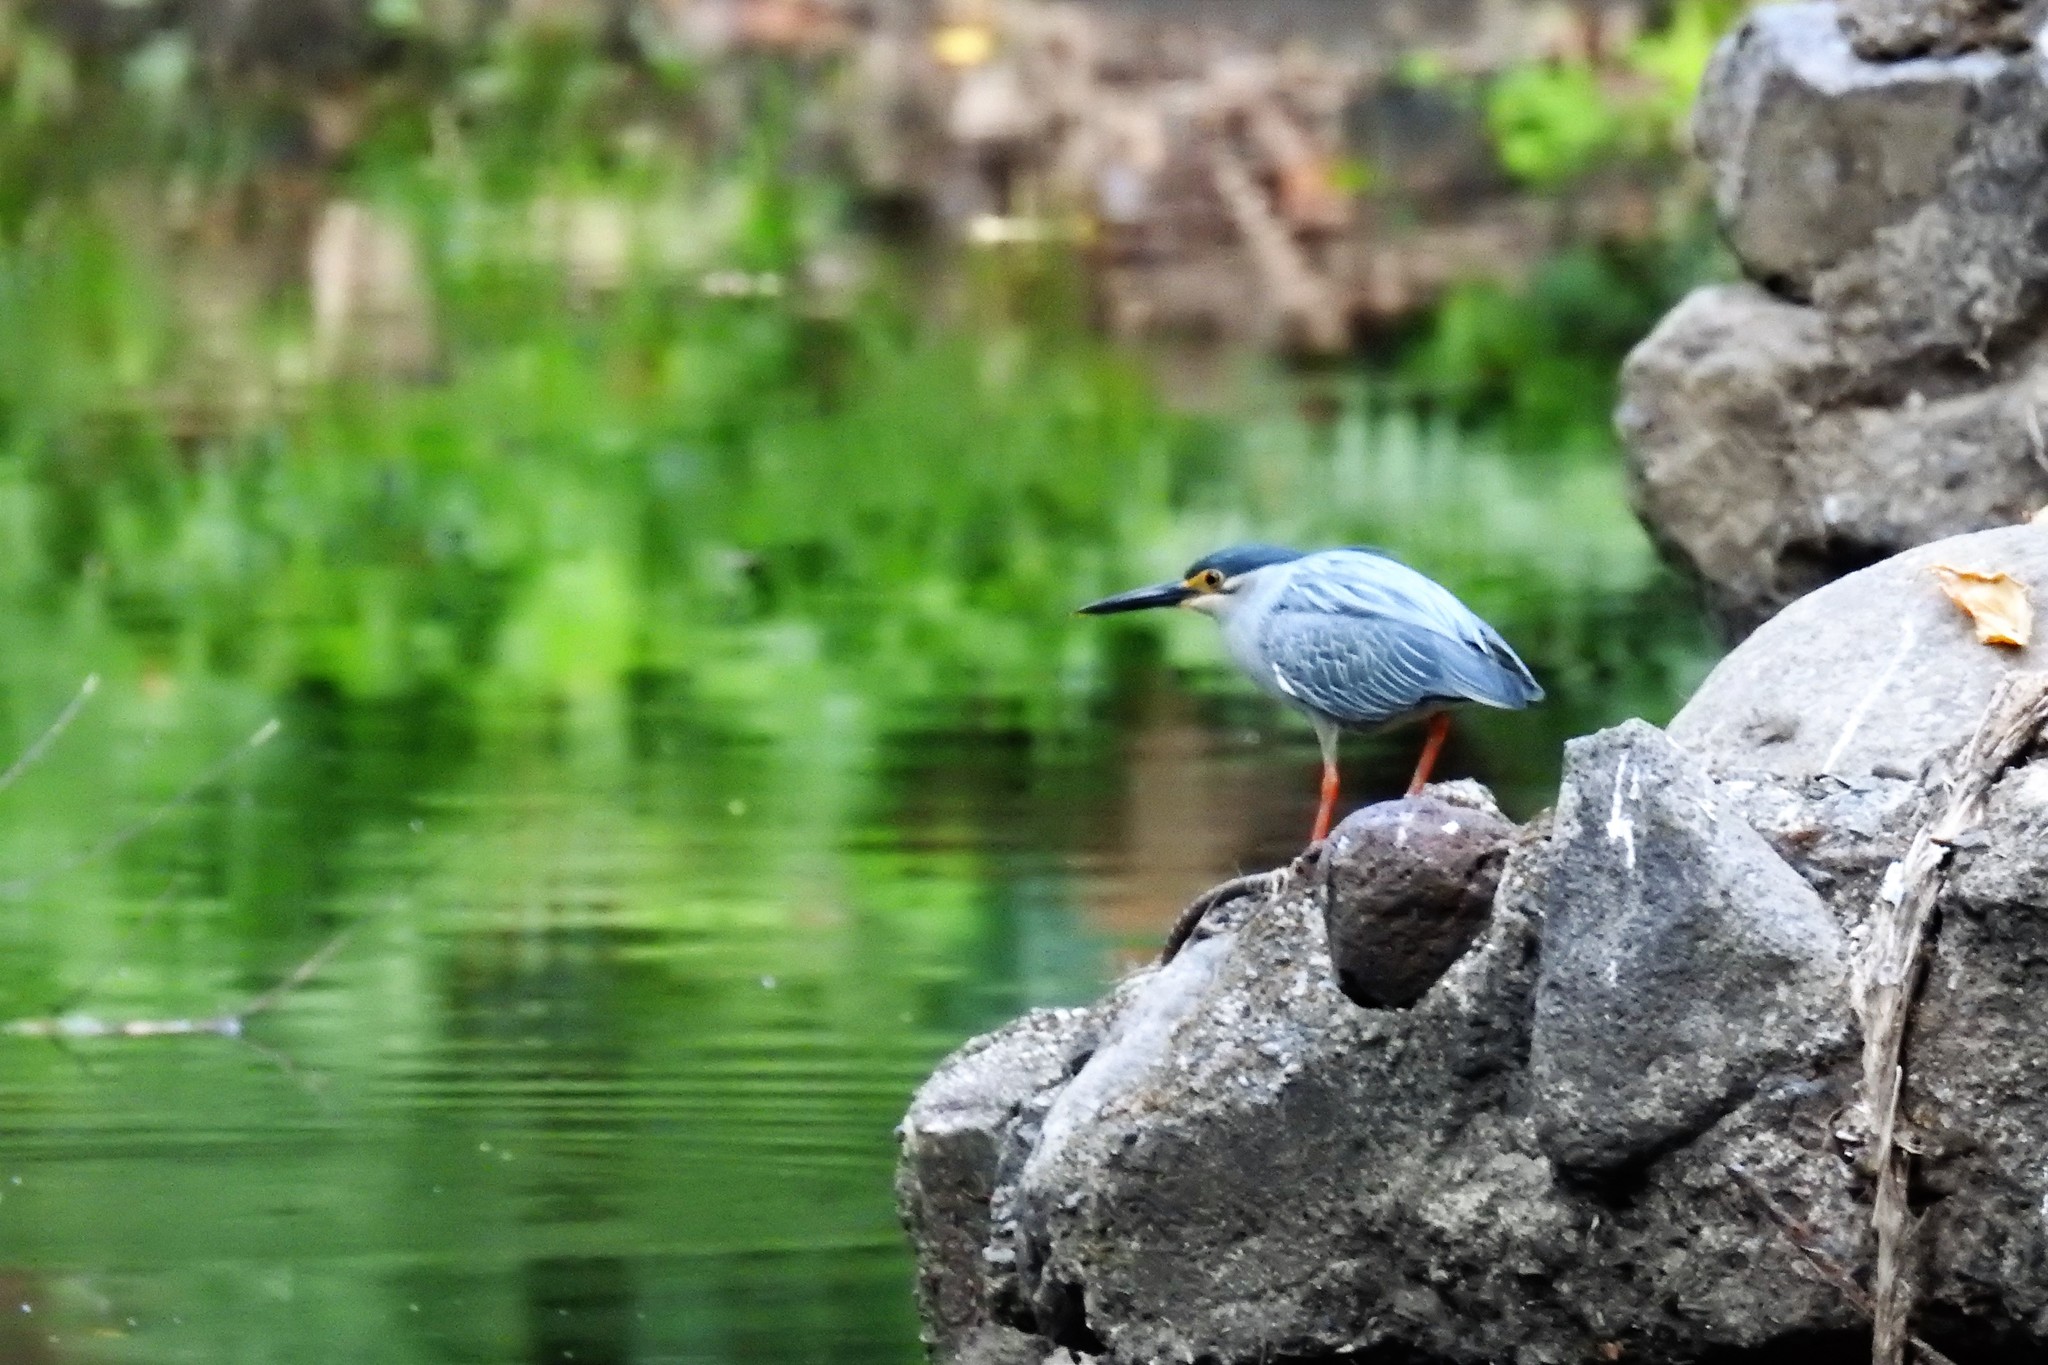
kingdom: Animalia
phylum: Chordata
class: Aves
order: Pelecaniformes
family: Ardeidae
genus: Butorides
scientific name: Butorides striata
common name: Striated heron
